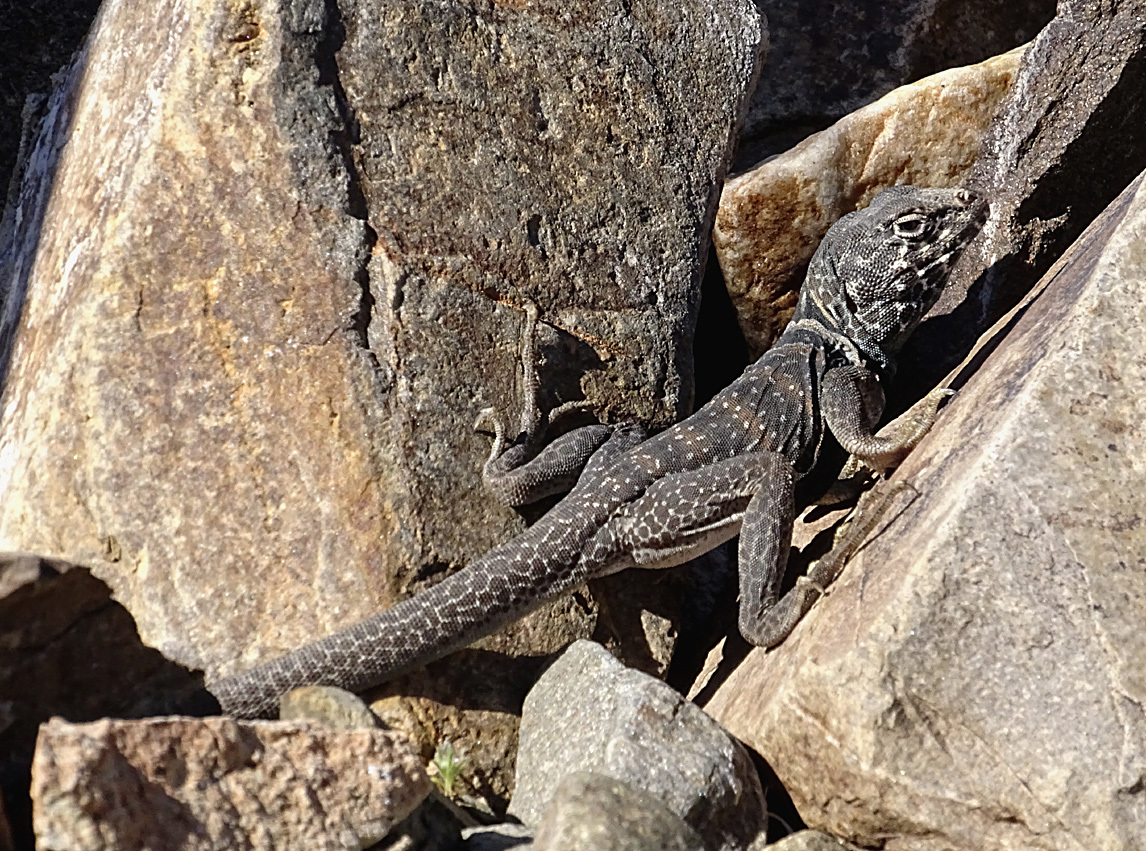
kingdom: Animalia
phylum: Chordata
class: Squamata
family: Crotaphytidae
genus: Crotaphytus
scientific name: Crotaphytus bicinctores
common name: Mojave black-collared lizard
